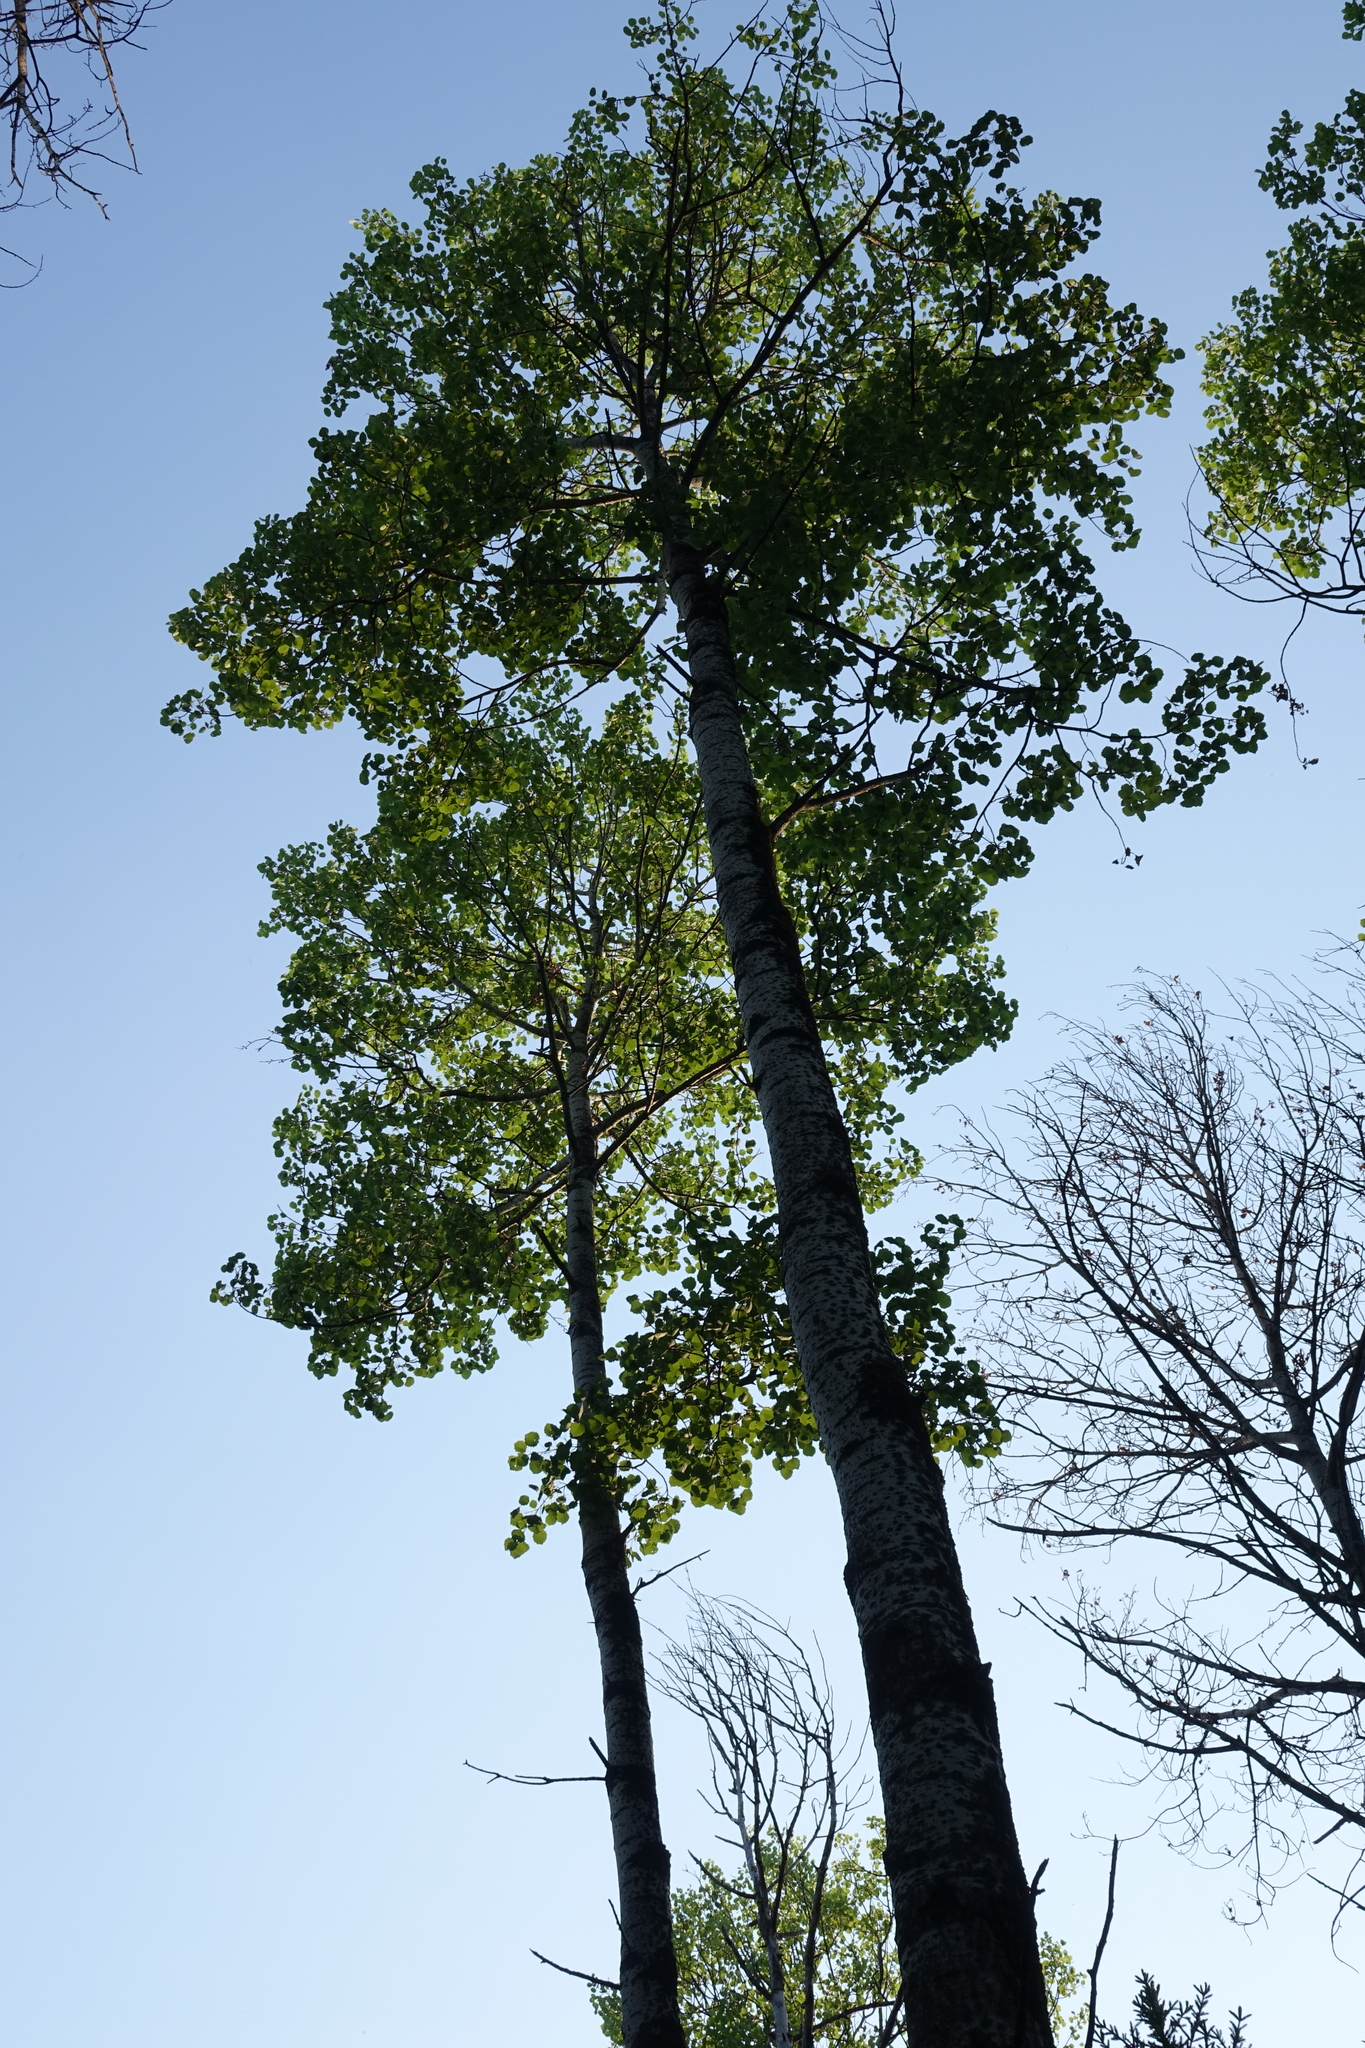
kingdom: Plantae
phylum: Tracheophyta
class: Magnoliopsida
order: Malpighiales
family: Salicaceae
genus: Populus
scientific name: Populus tremula
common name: European aspen
